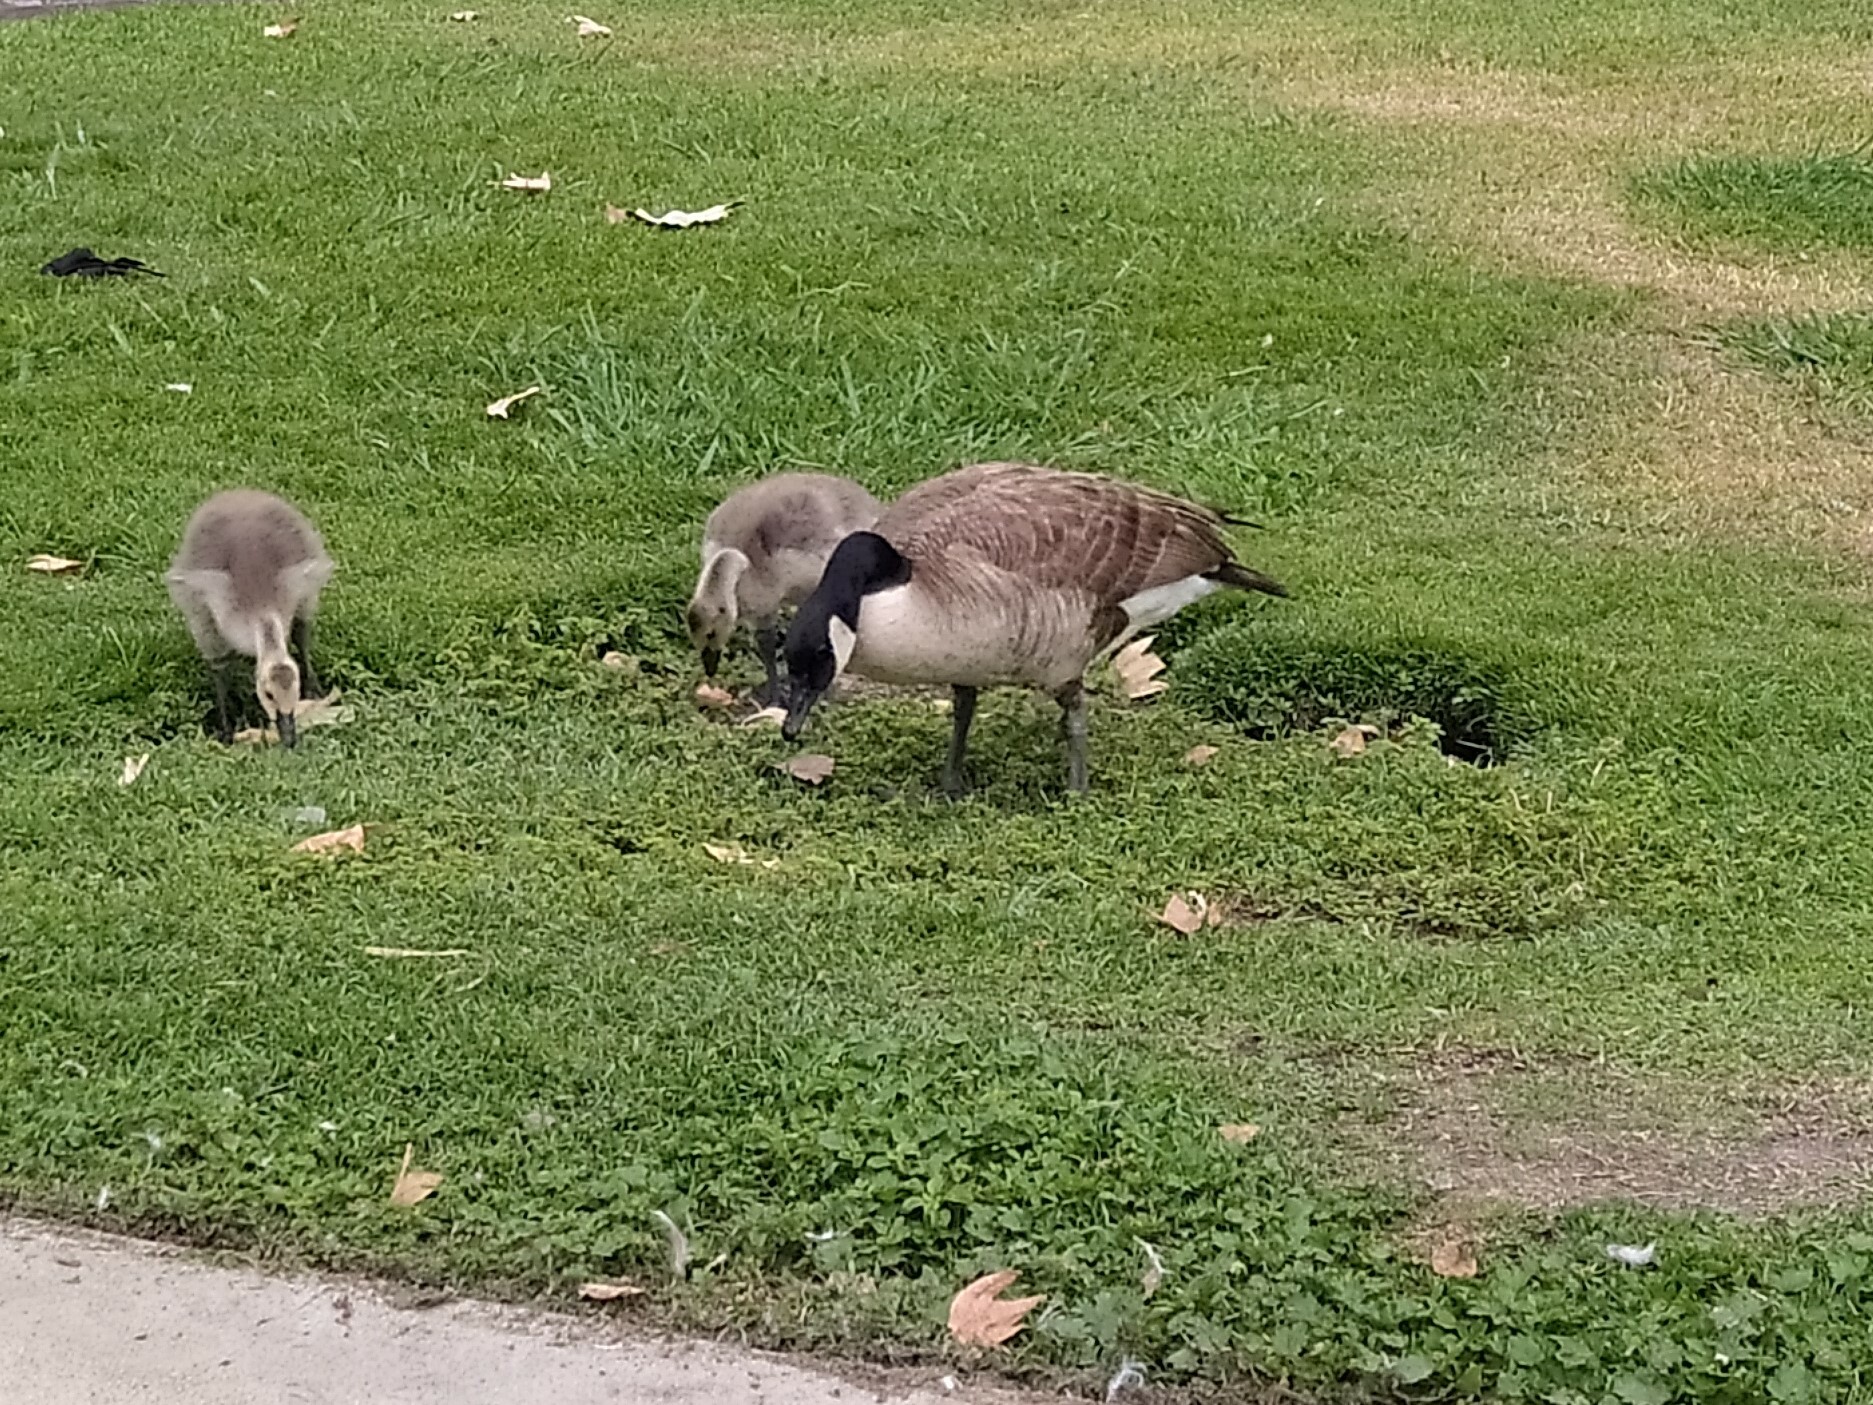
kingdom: Animalia
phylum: Chordata
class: Aves
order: Anseriformes
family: Anatidae
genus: Branta
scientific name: Branta canadensis
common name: Canada goose
